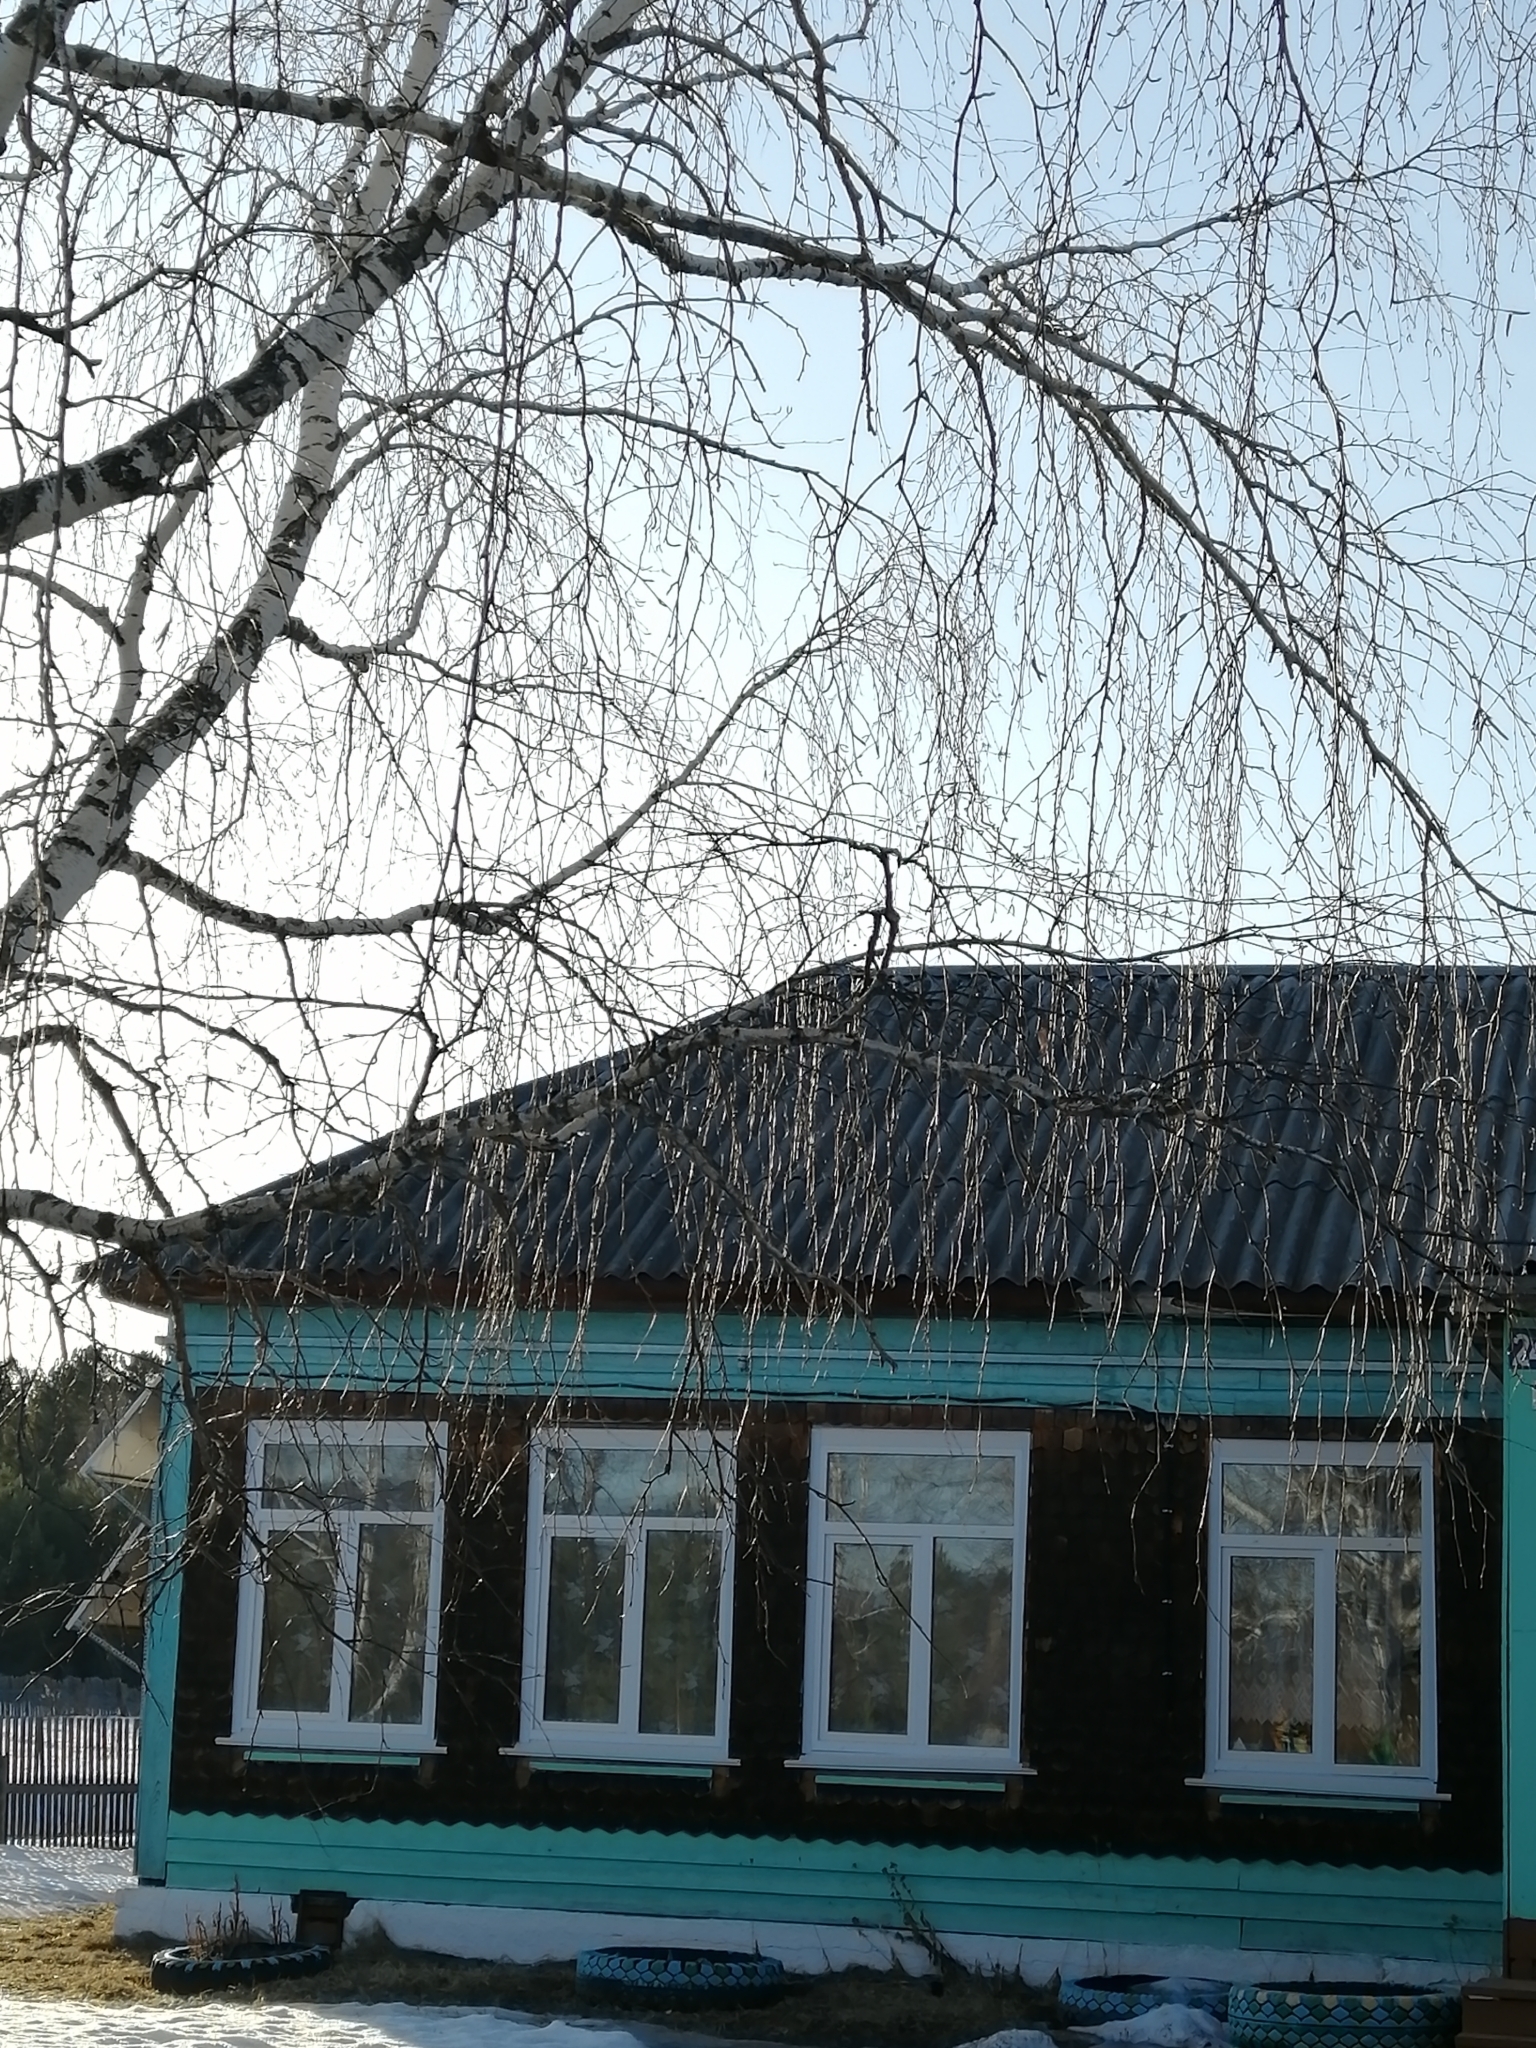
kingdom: Plantae
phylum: Tracheophyta
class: Magnoliopsida
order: Fagales
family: Betulaceae
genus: Betula
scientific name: Betula pendula
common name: Silver birch
